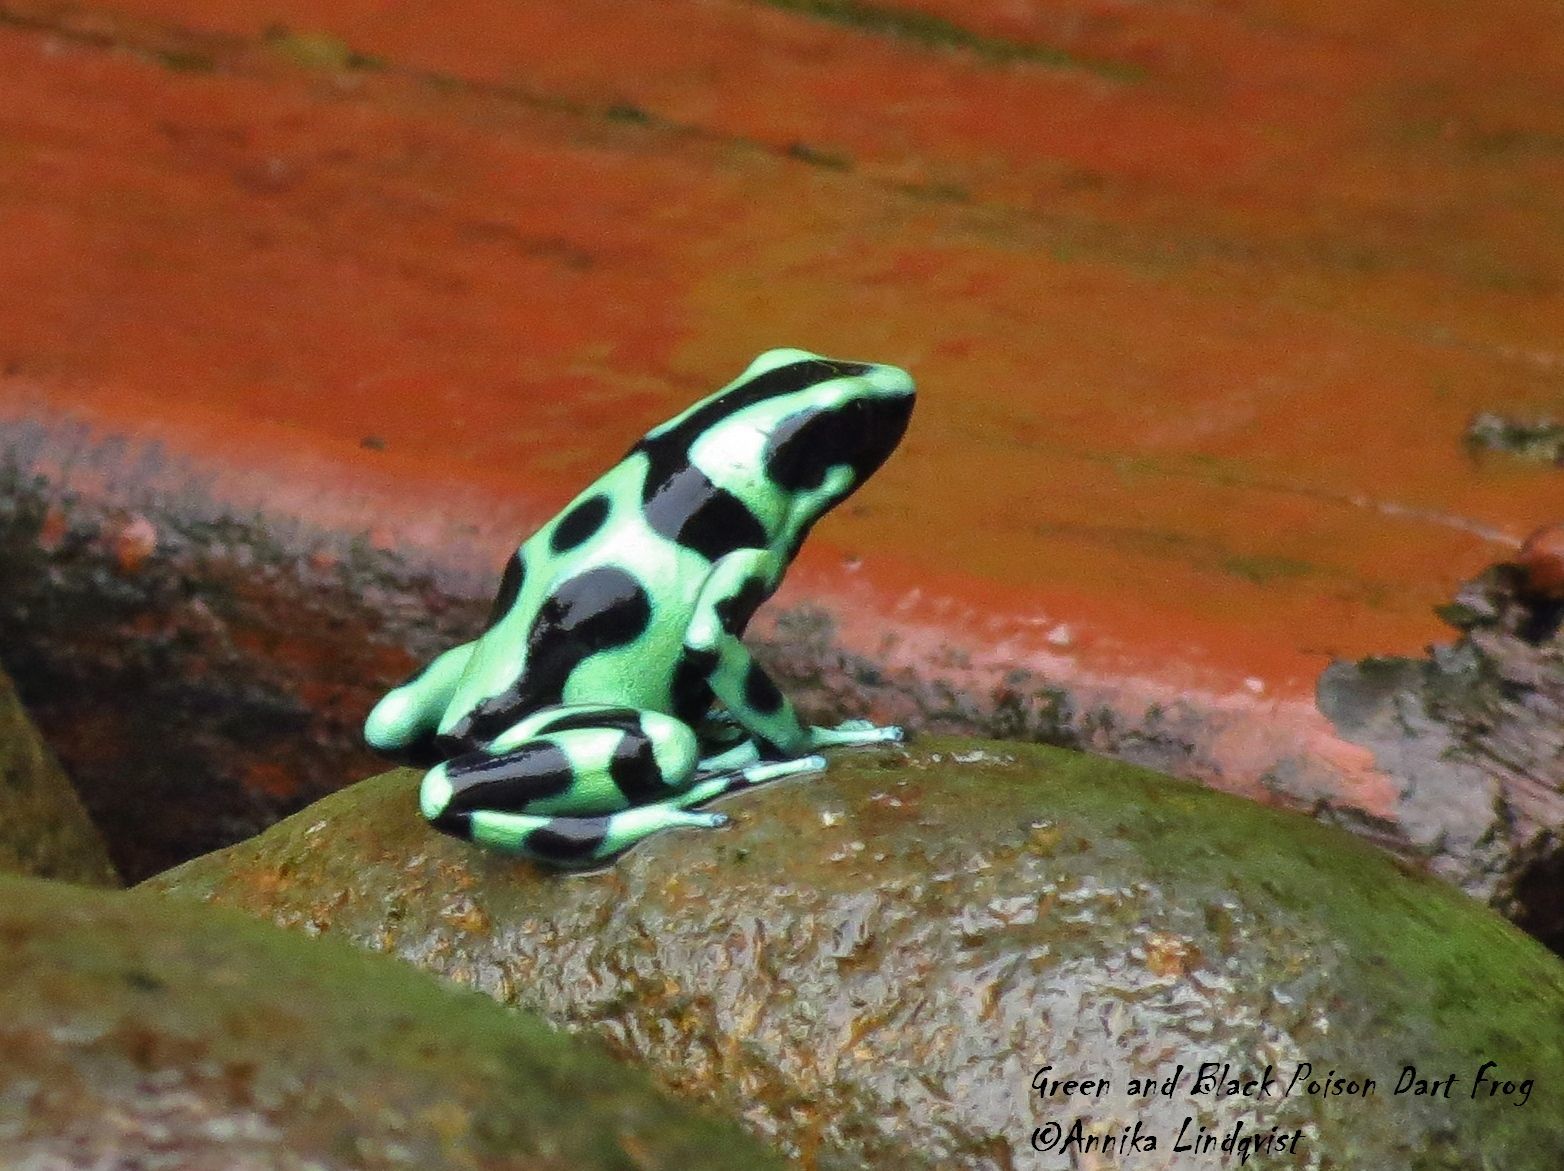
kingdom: Animalia
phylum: Chordata
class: Amphibia
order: Anura
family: Dendrobatidae
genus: Dendrobates
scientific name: Dendrobates auratus
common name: Green and black poison dart frog
